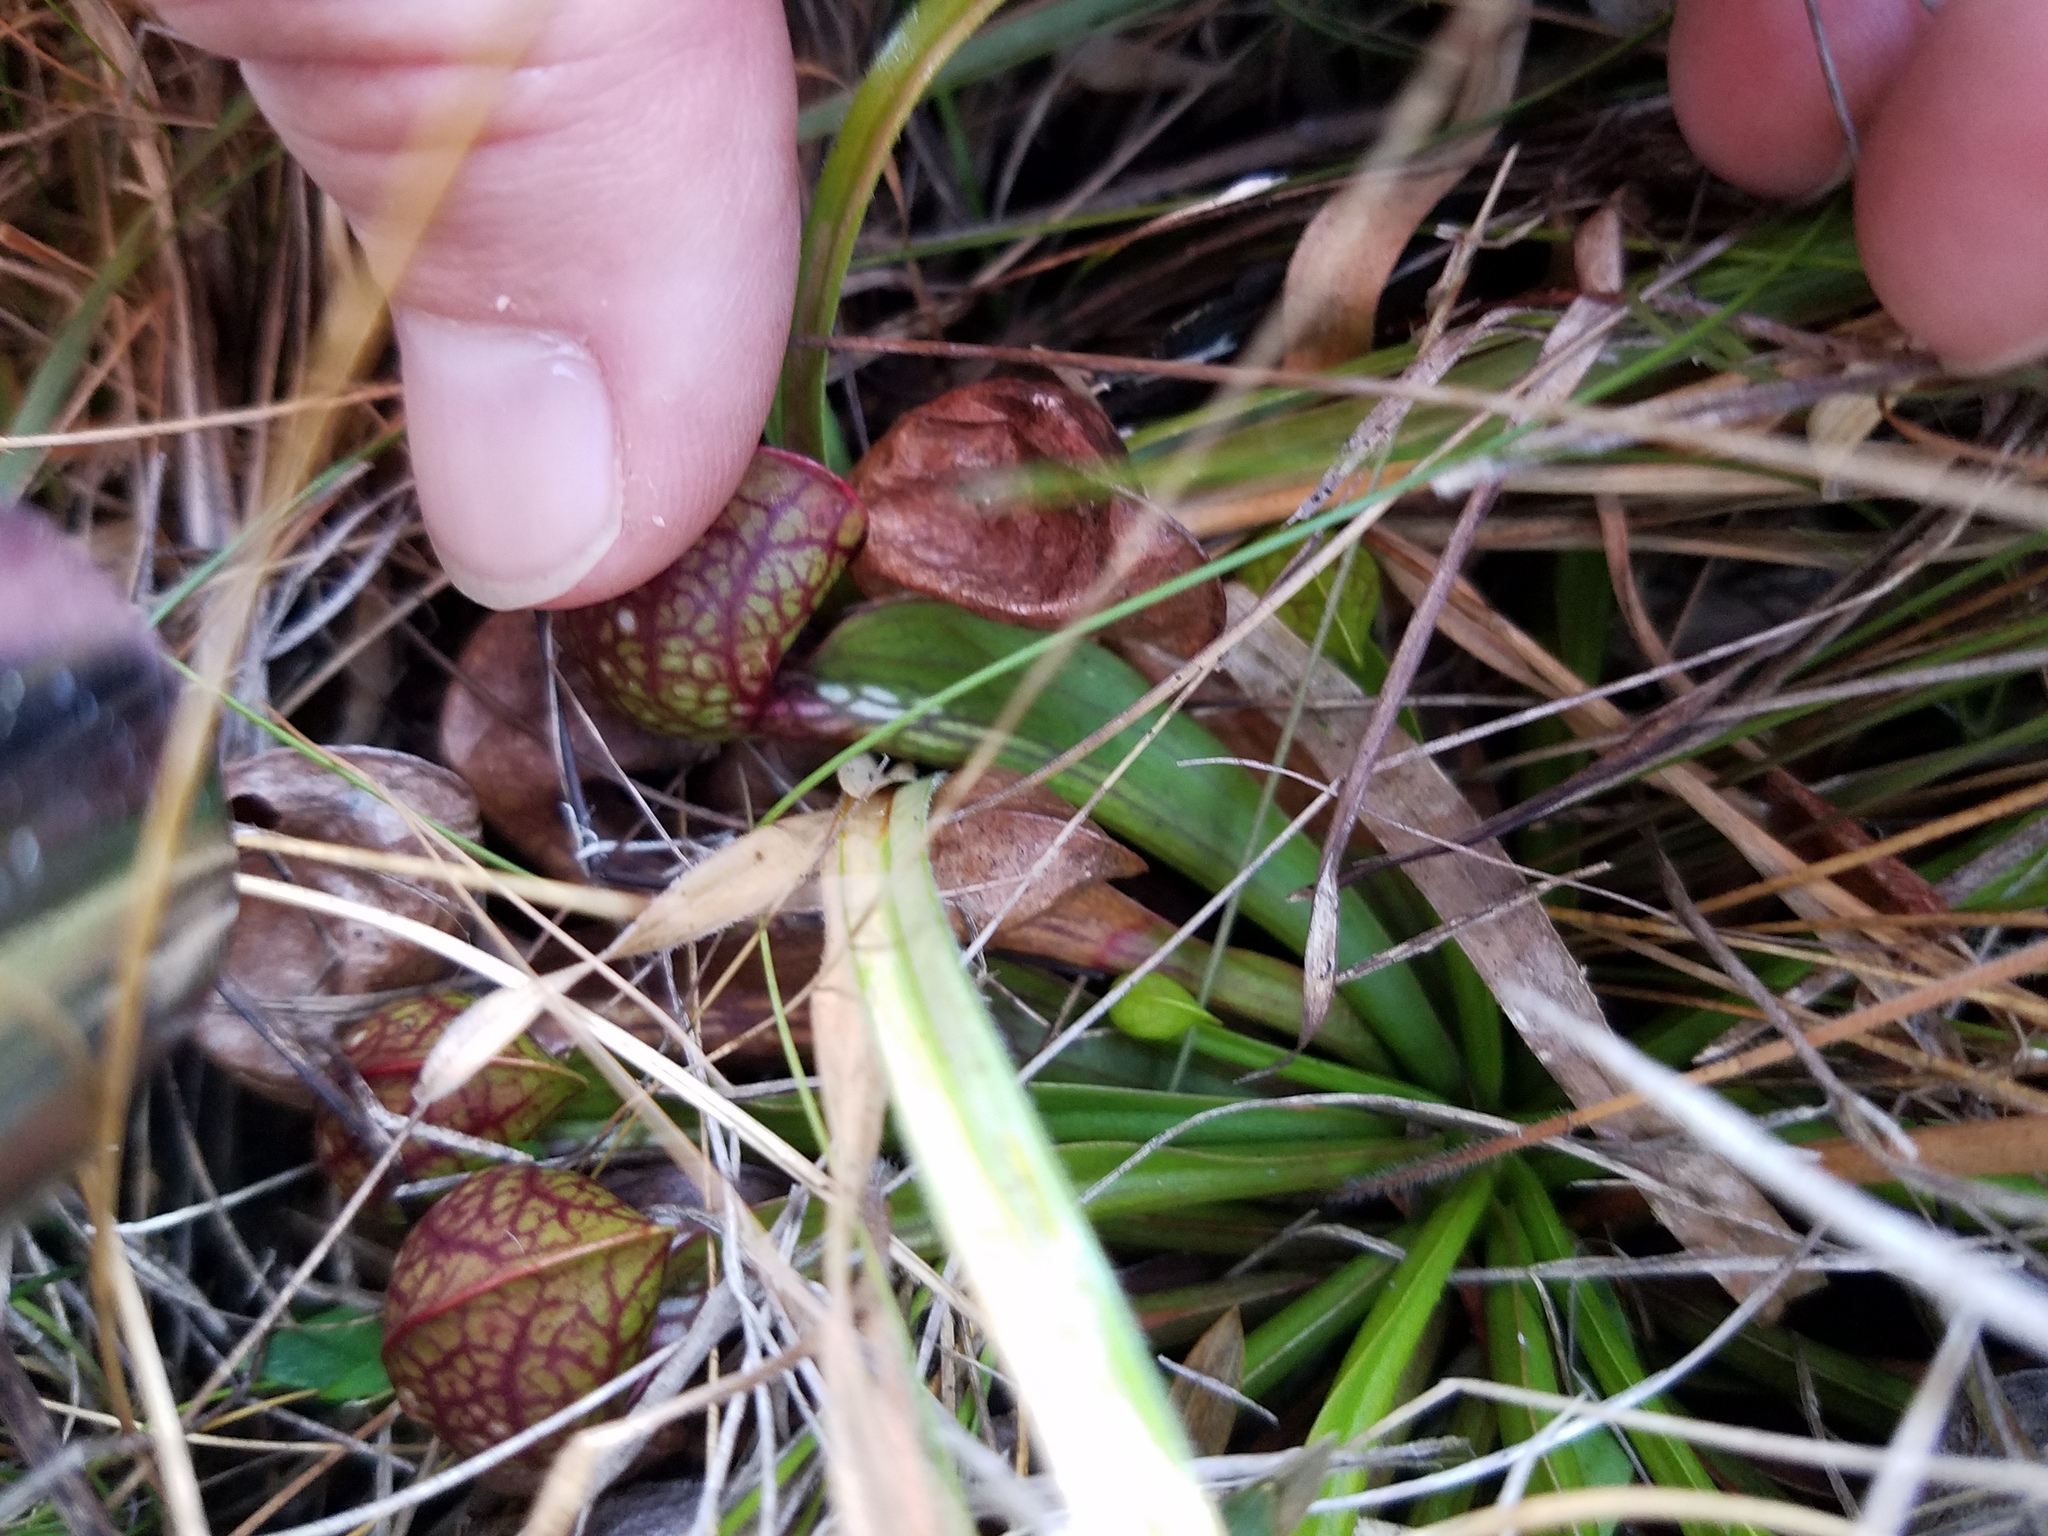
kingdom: Plantae
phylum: Tracheophyta
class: Magnoliopsida
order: Ericales
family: Sarraceniaceae
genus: Sarracenia
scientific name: Sarracenia psittacina
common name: Parrot pitcherplant
